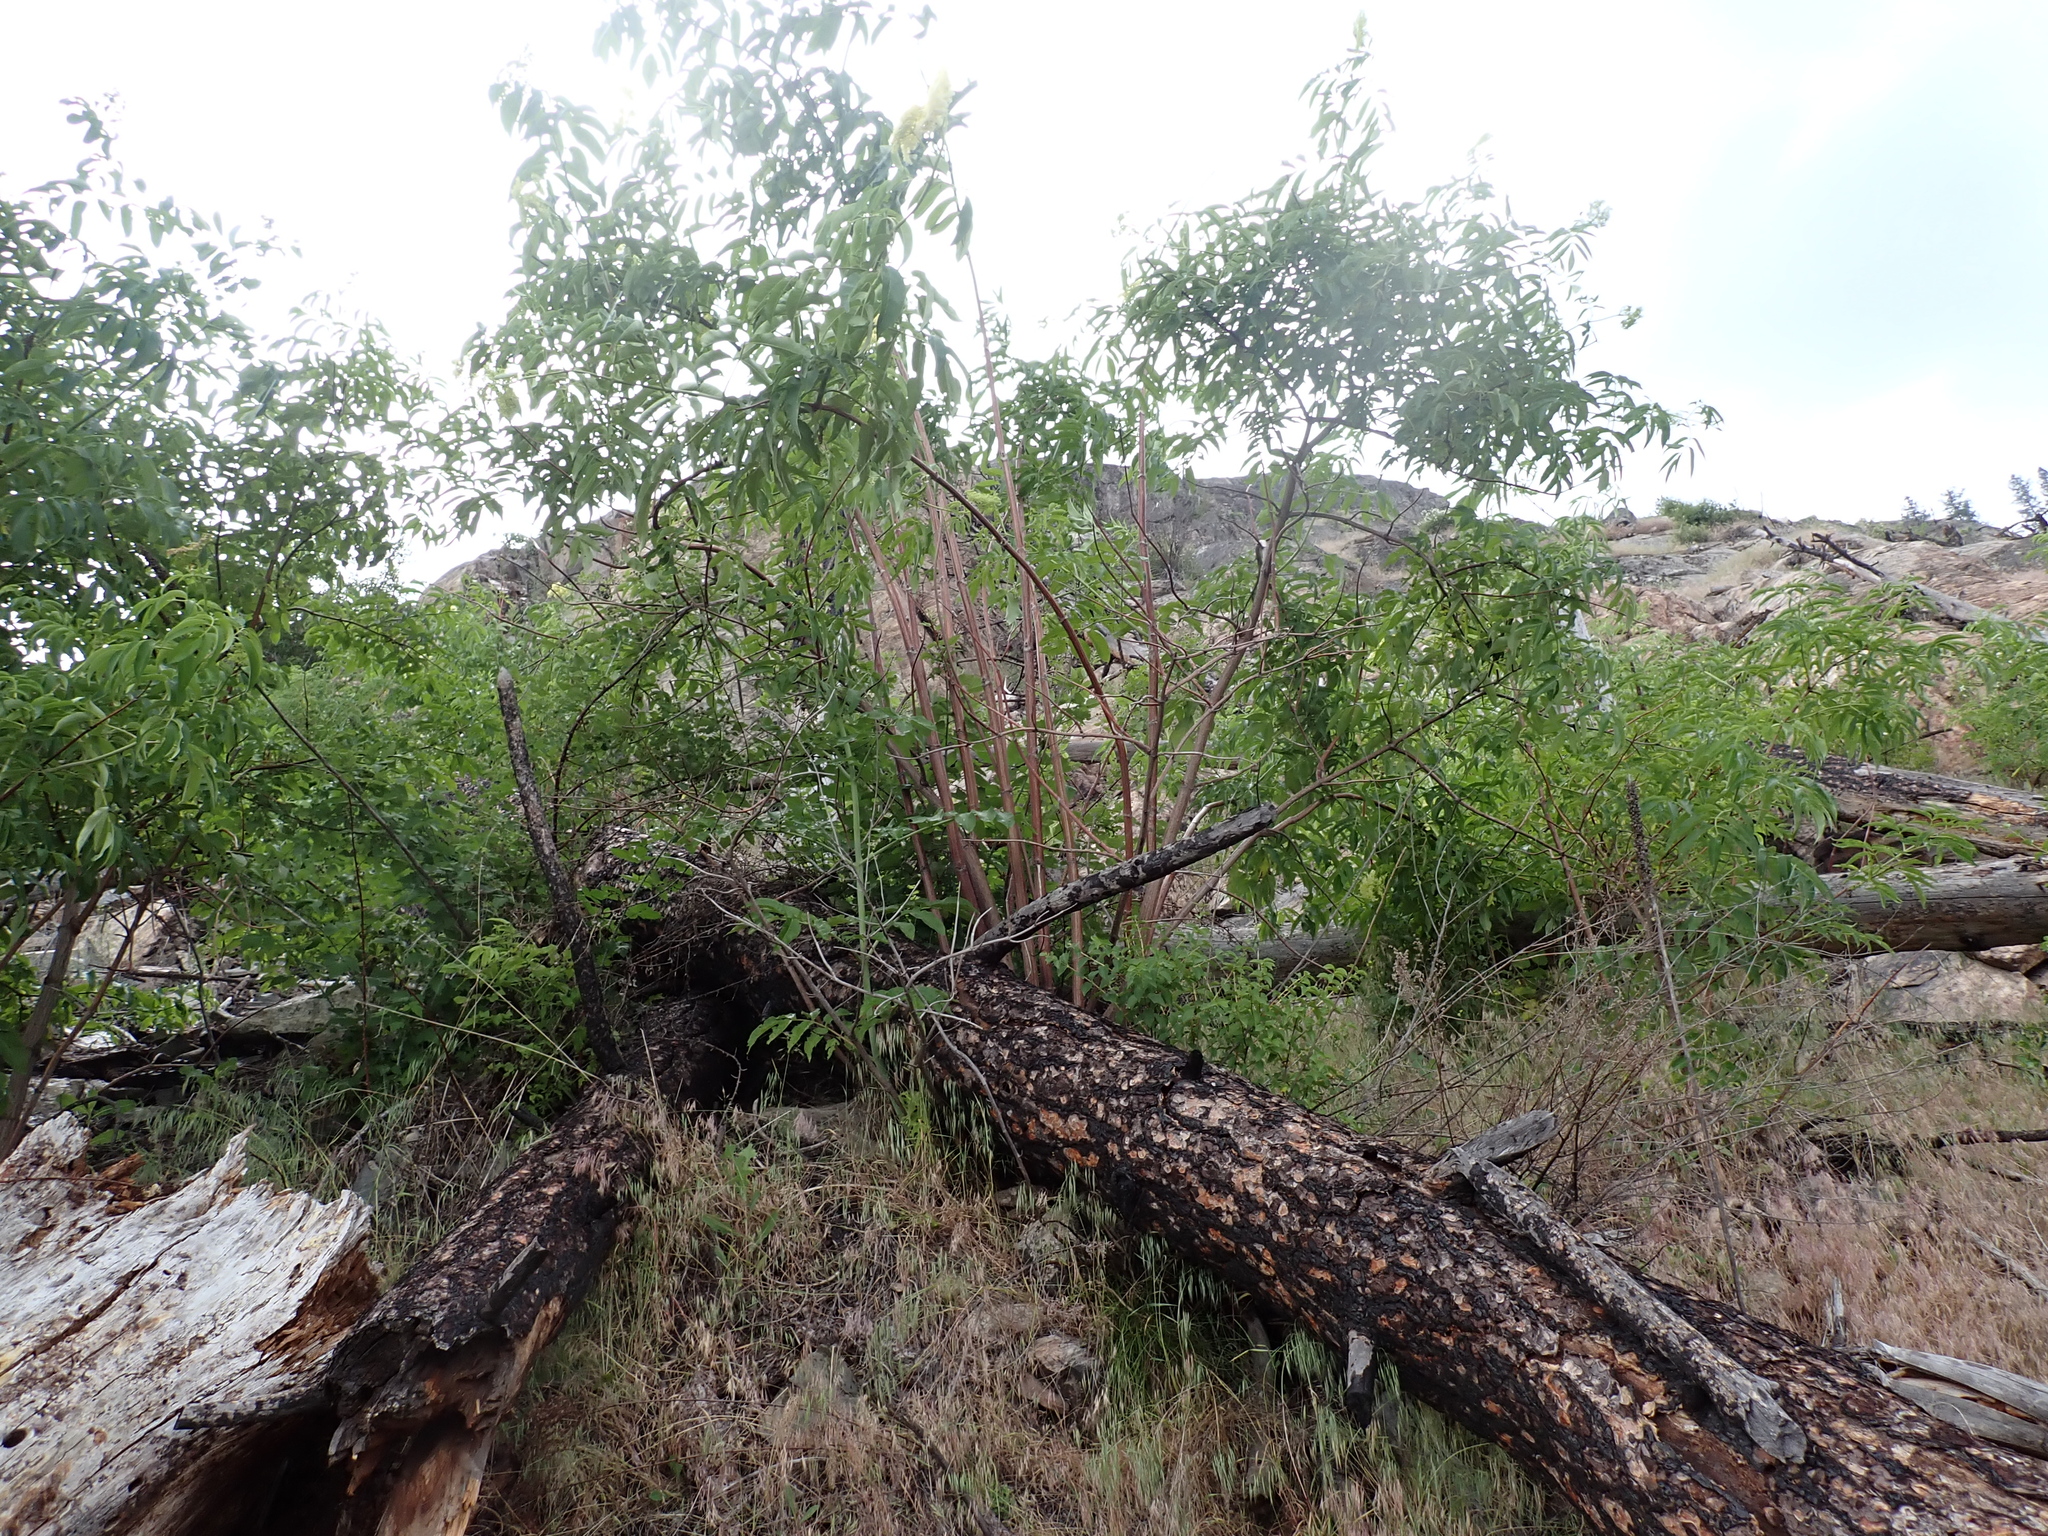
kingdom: Plantae
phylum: Tracheophyta
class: Magnoliopsida
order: Dipsacales
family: Viburnaceae
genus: Sambucus
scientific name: Sambucus cerulea
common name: Blue elder
